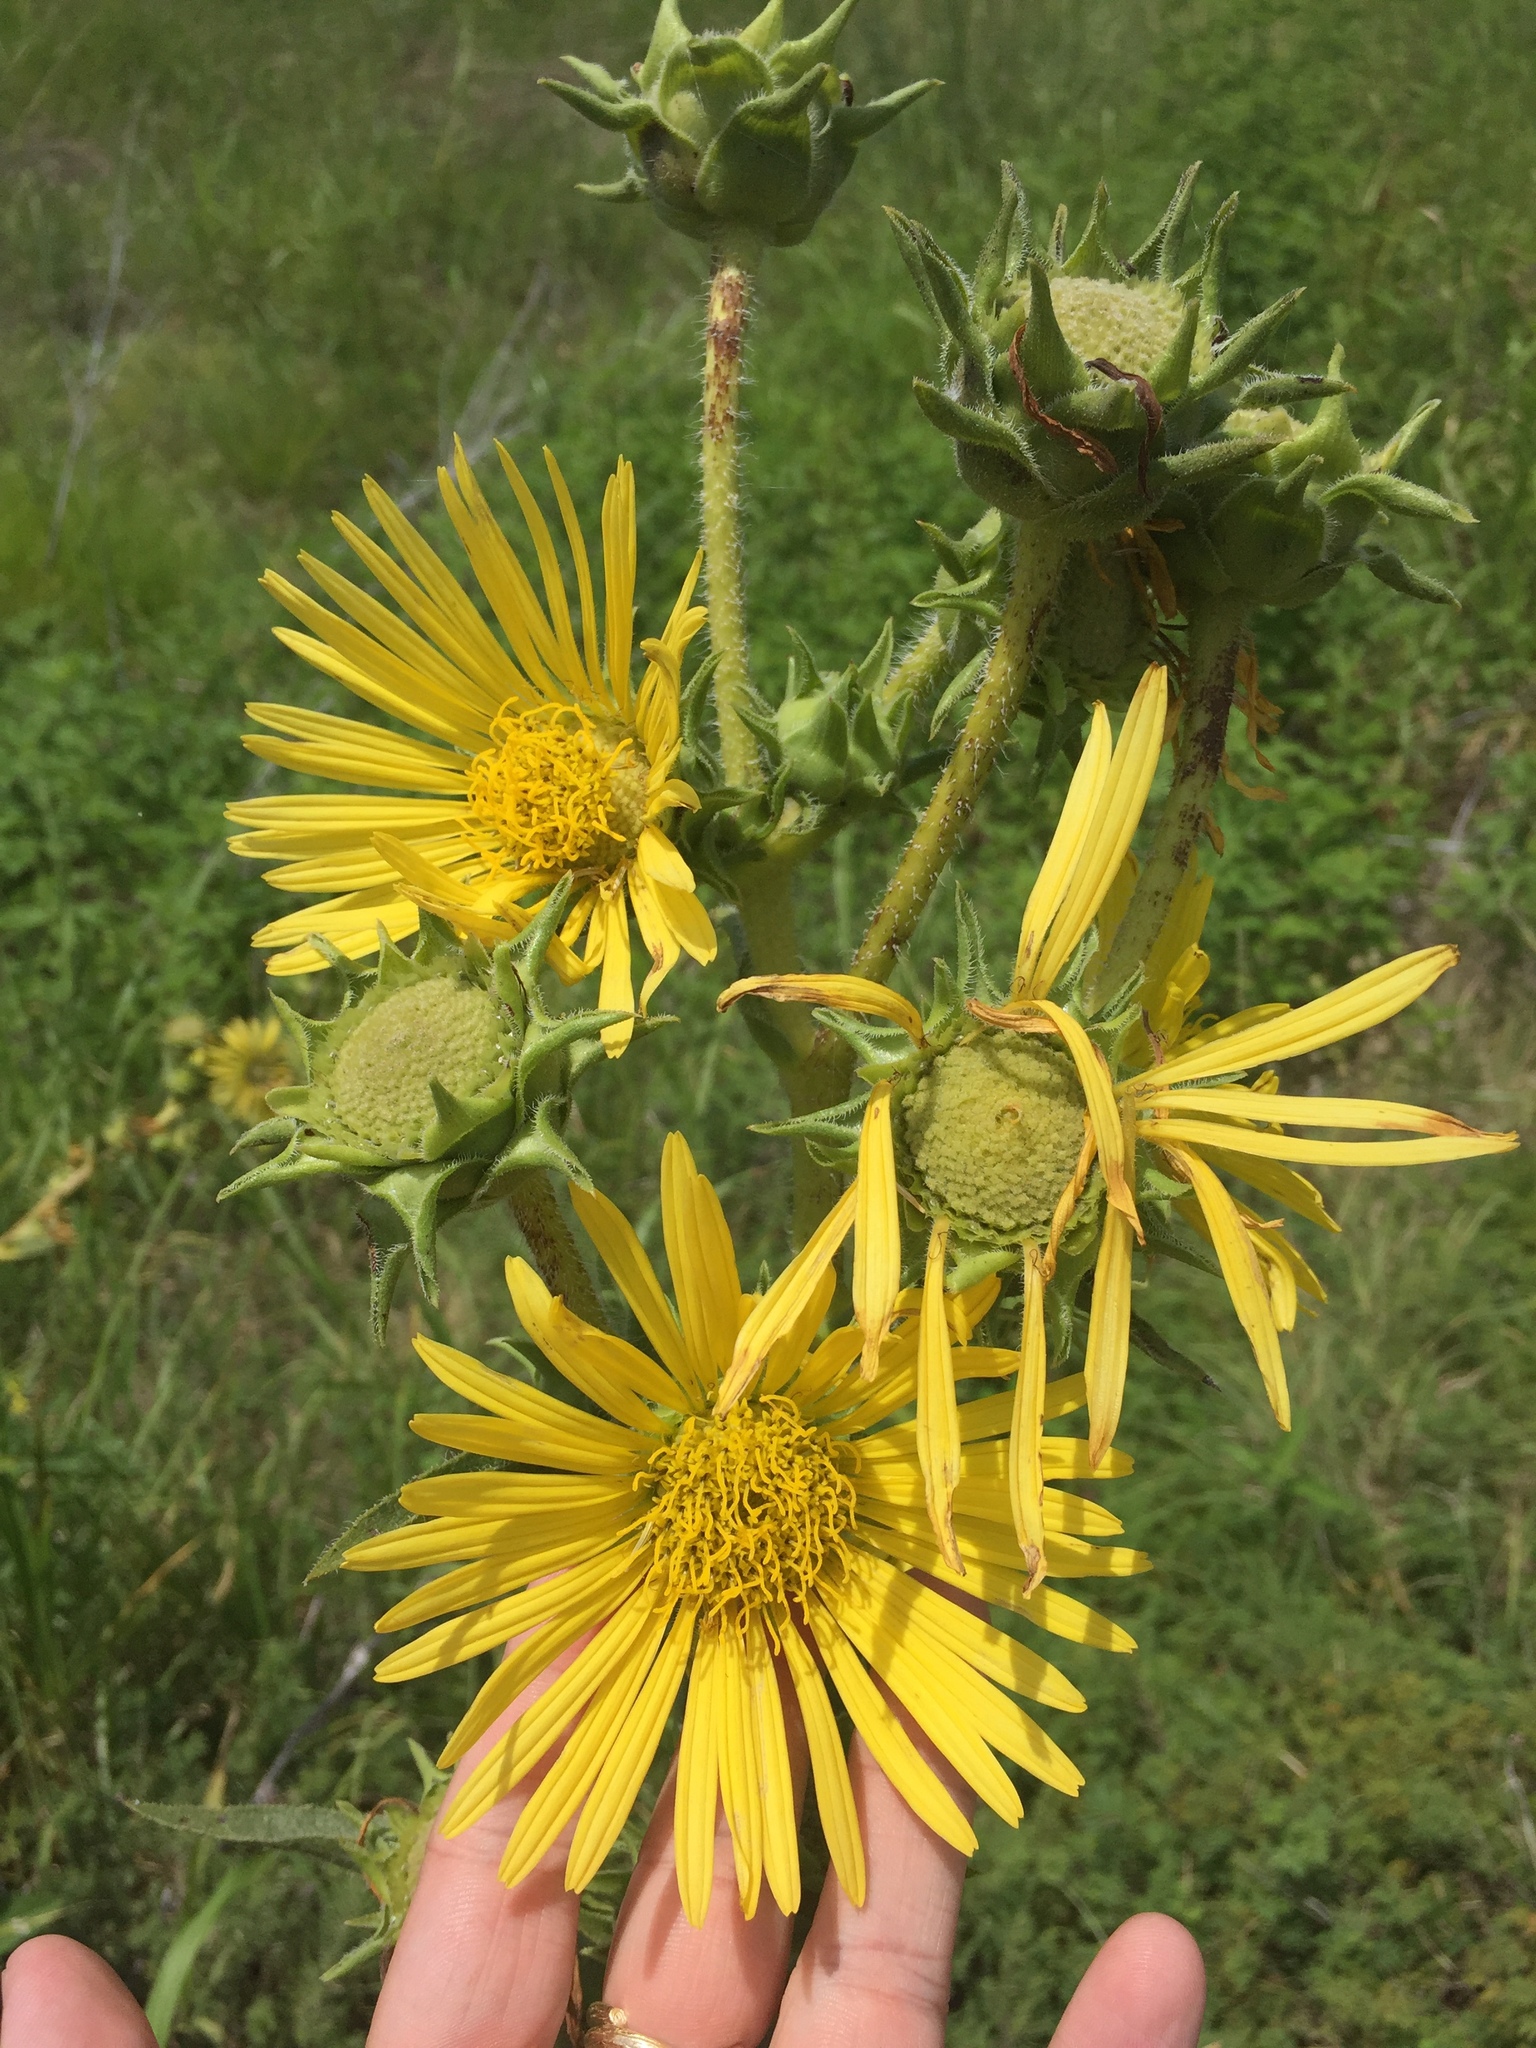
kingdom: Plantae
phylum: Tracheophyta
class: Magnoliopsida
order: Asterales
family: Asteraceae
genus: Silphium
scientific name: Silphium laciniatum
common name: Polarplant
